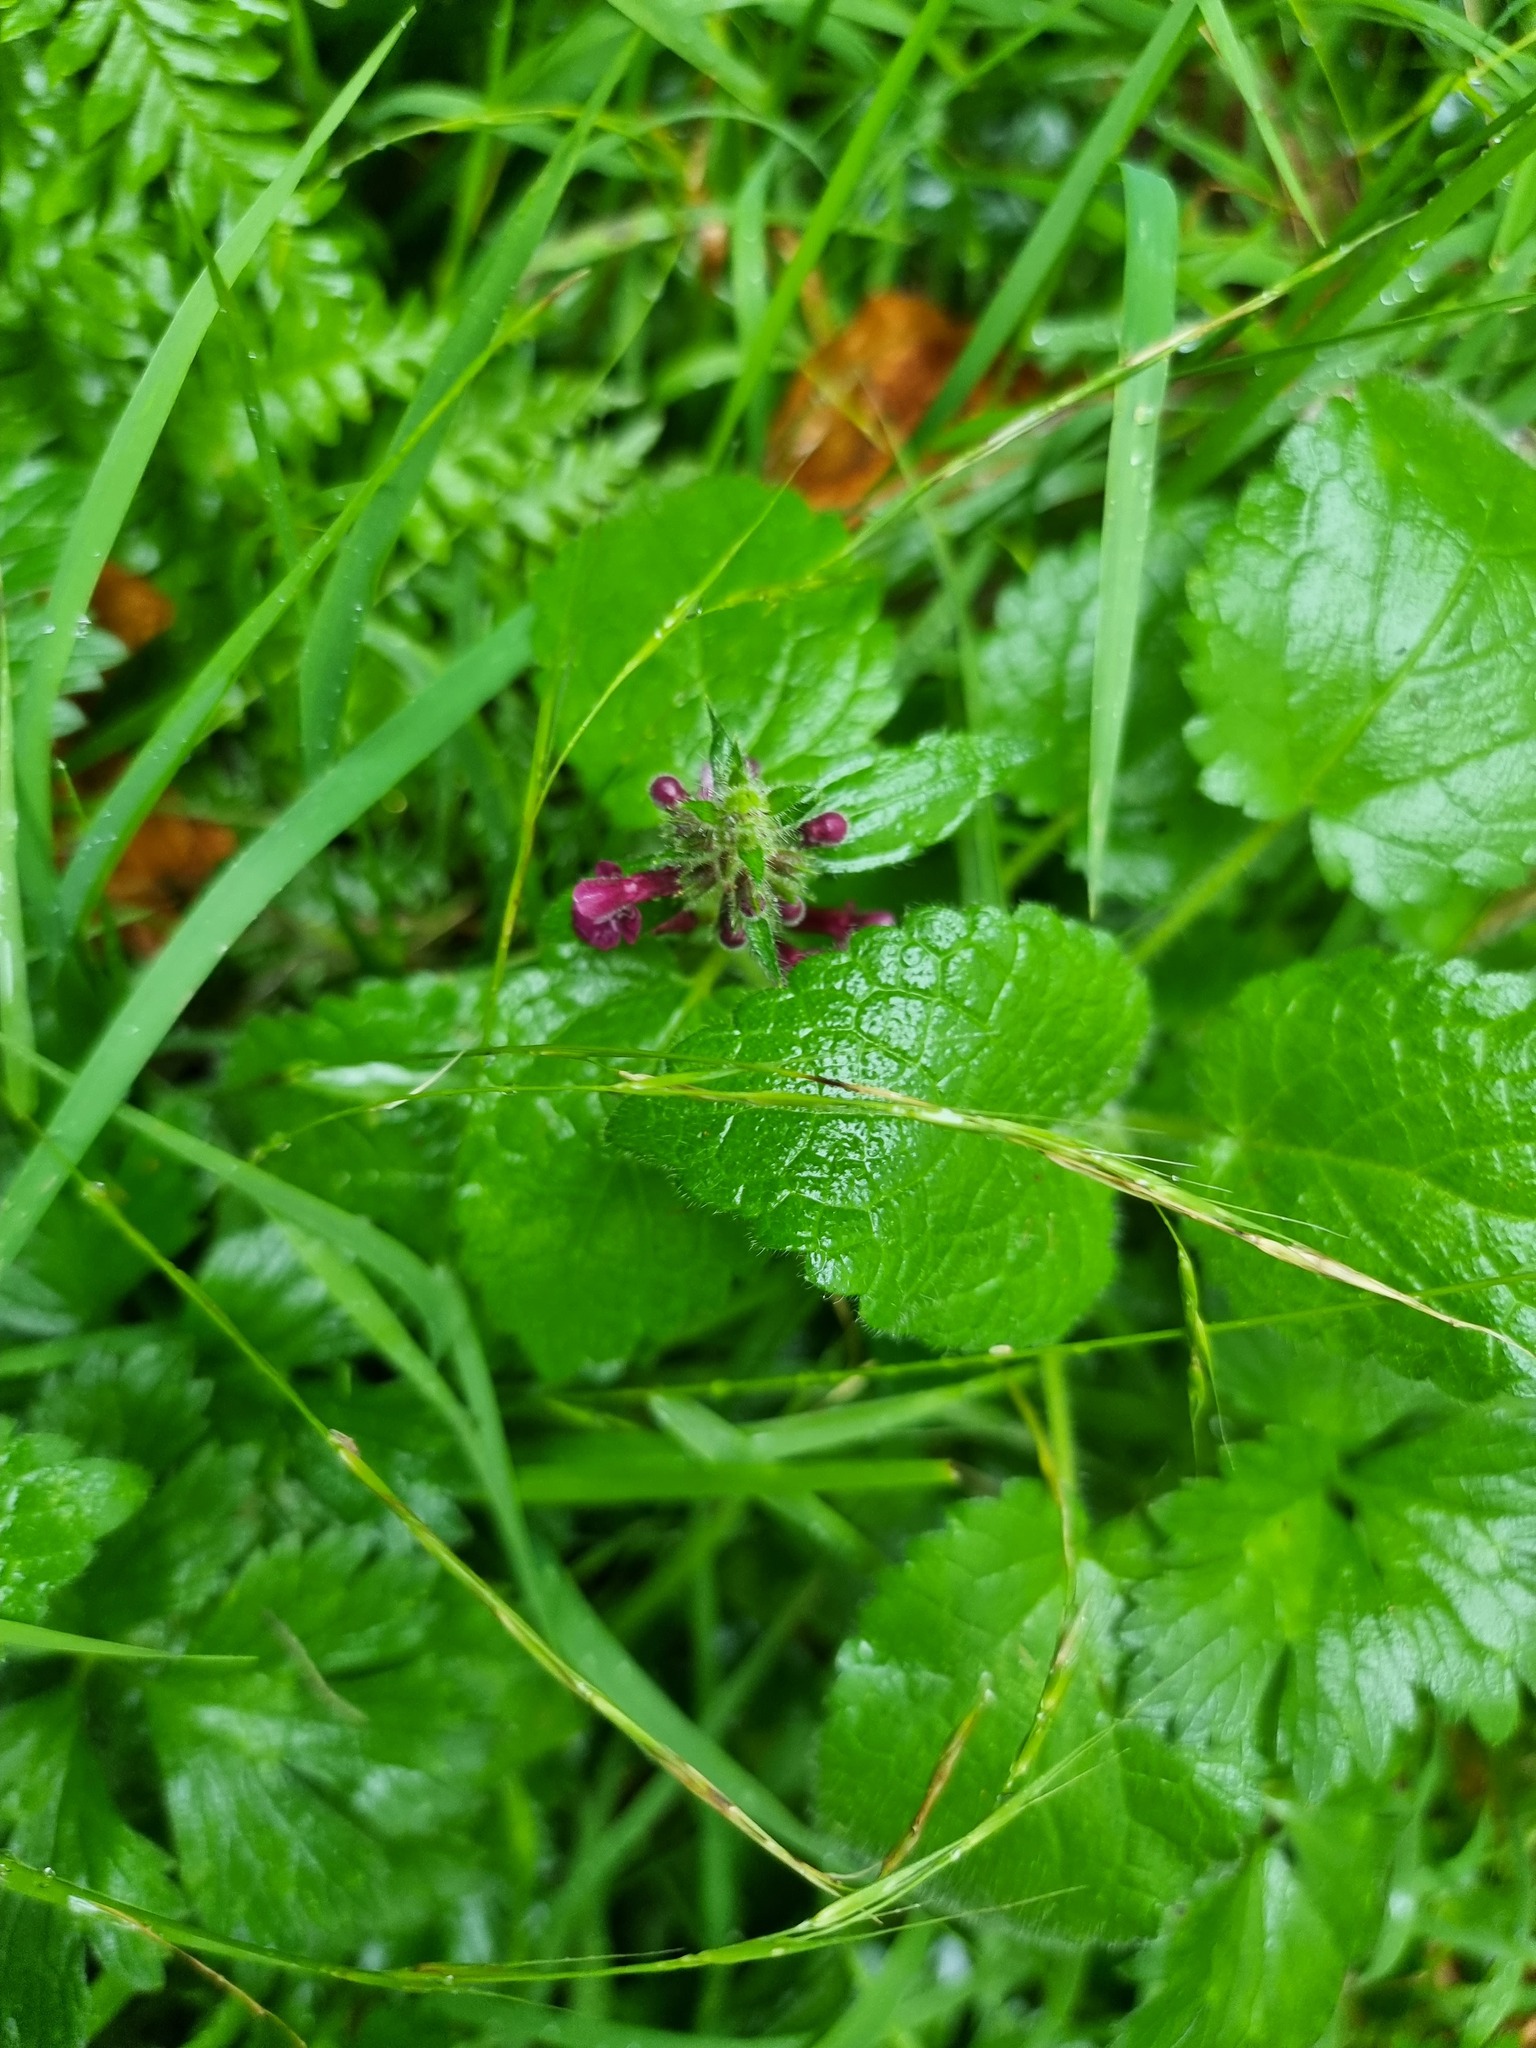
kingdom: Plantae
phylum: Tracheophyta
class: Magnoliopsida
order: Lamiales
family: Lamiaceae
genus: Stachys
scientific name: Stachys sylvatica
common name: Hedge woundwort
